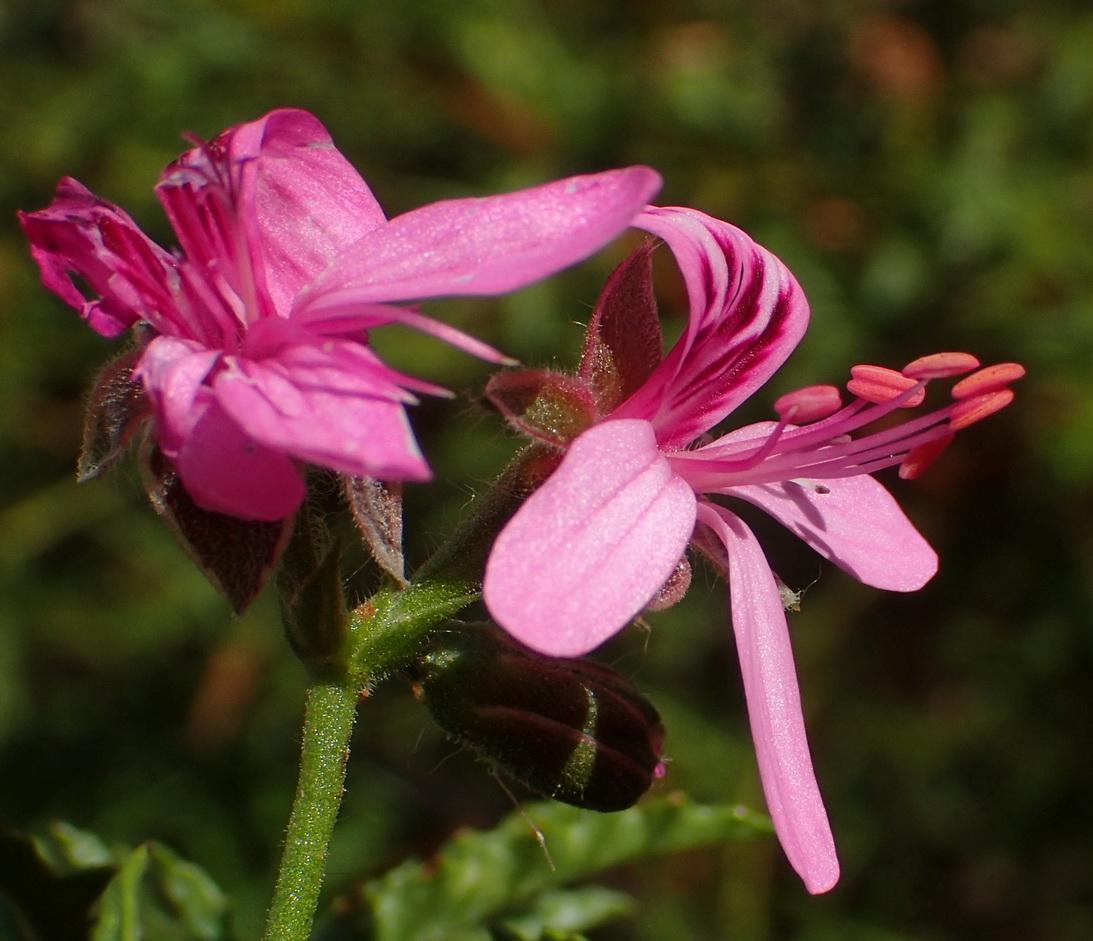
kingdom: Plantae
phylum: Tracheophyta
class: Magnoliopsida
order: Geraniales
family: Geraniaceae
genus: Pelargonium
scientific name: Pelargonium glutinosum
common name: Pheasant-foot geranium
